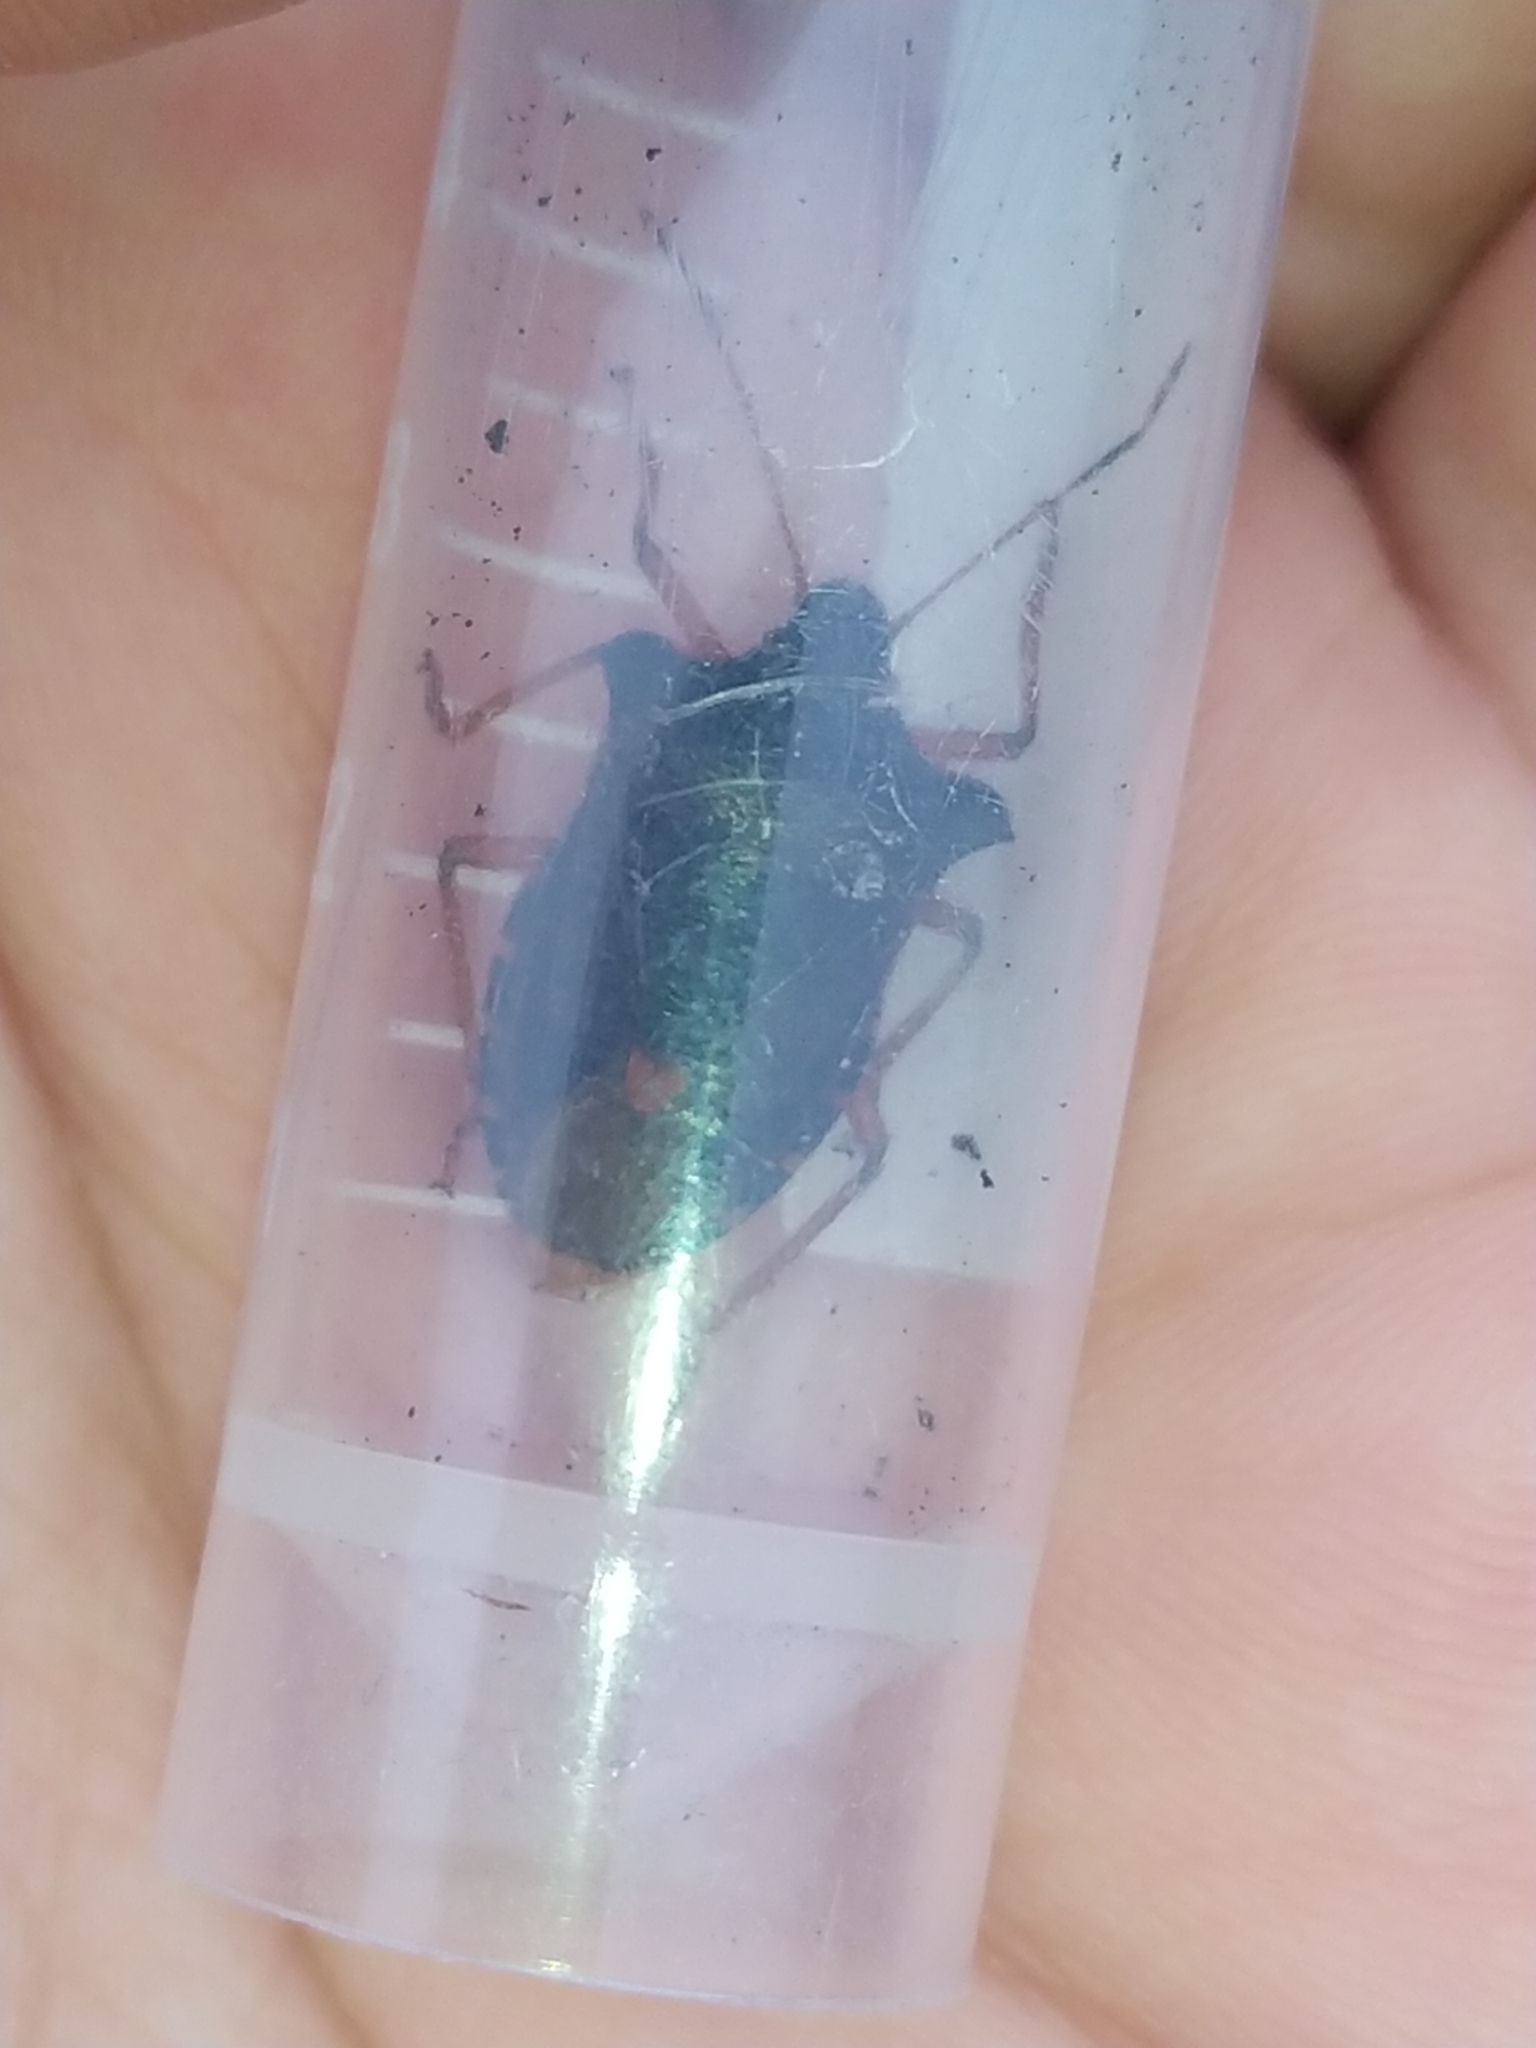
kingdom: Animalia
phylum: Arthropoda
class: Insecta
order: Hemiptera
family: Pentatomidae
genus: Pentatoma
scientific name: Pentatoma rufipes
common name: Forest bug
